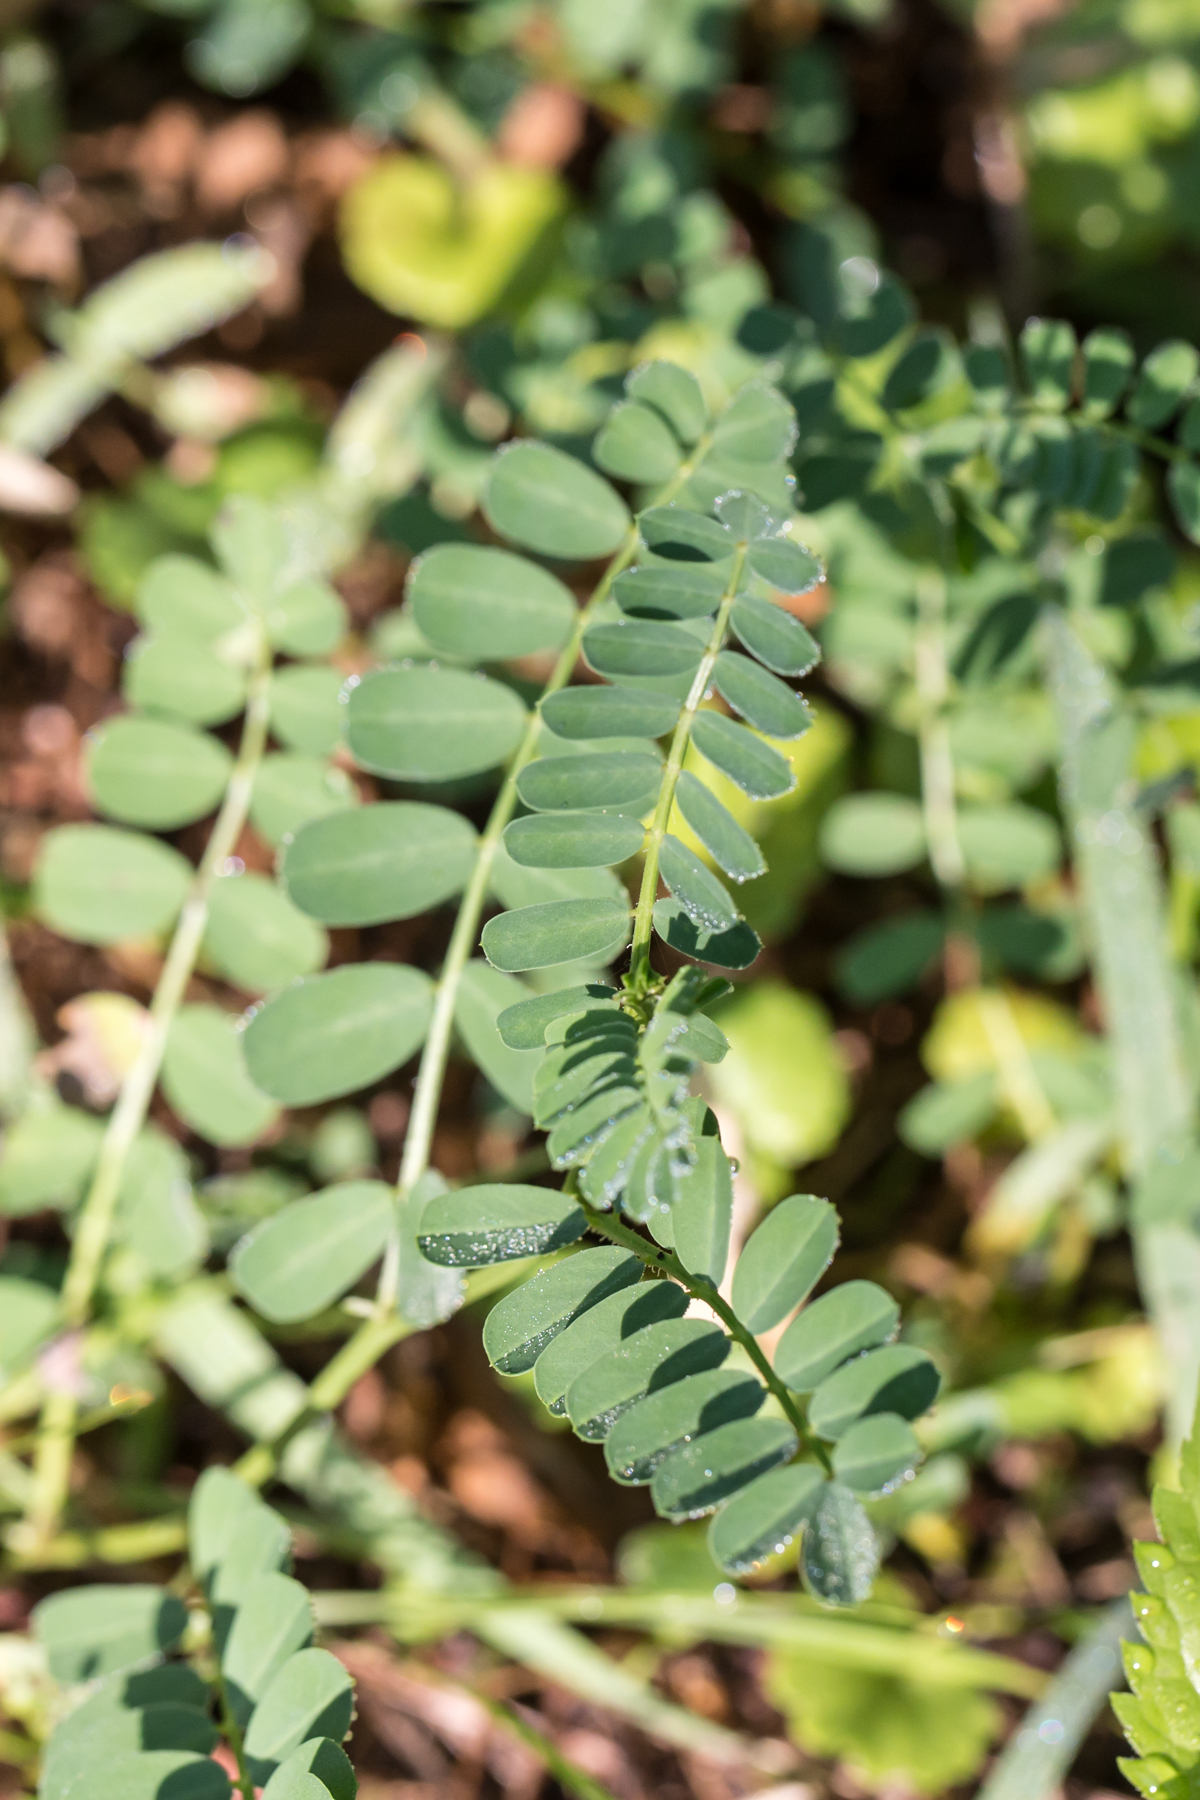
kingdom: Plantae
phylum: Tracheophyta
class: Magnoliopsida
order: Fabales
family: Fabaceae
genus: Coronilla
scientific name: Coronilla varia
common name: Crownvetch
